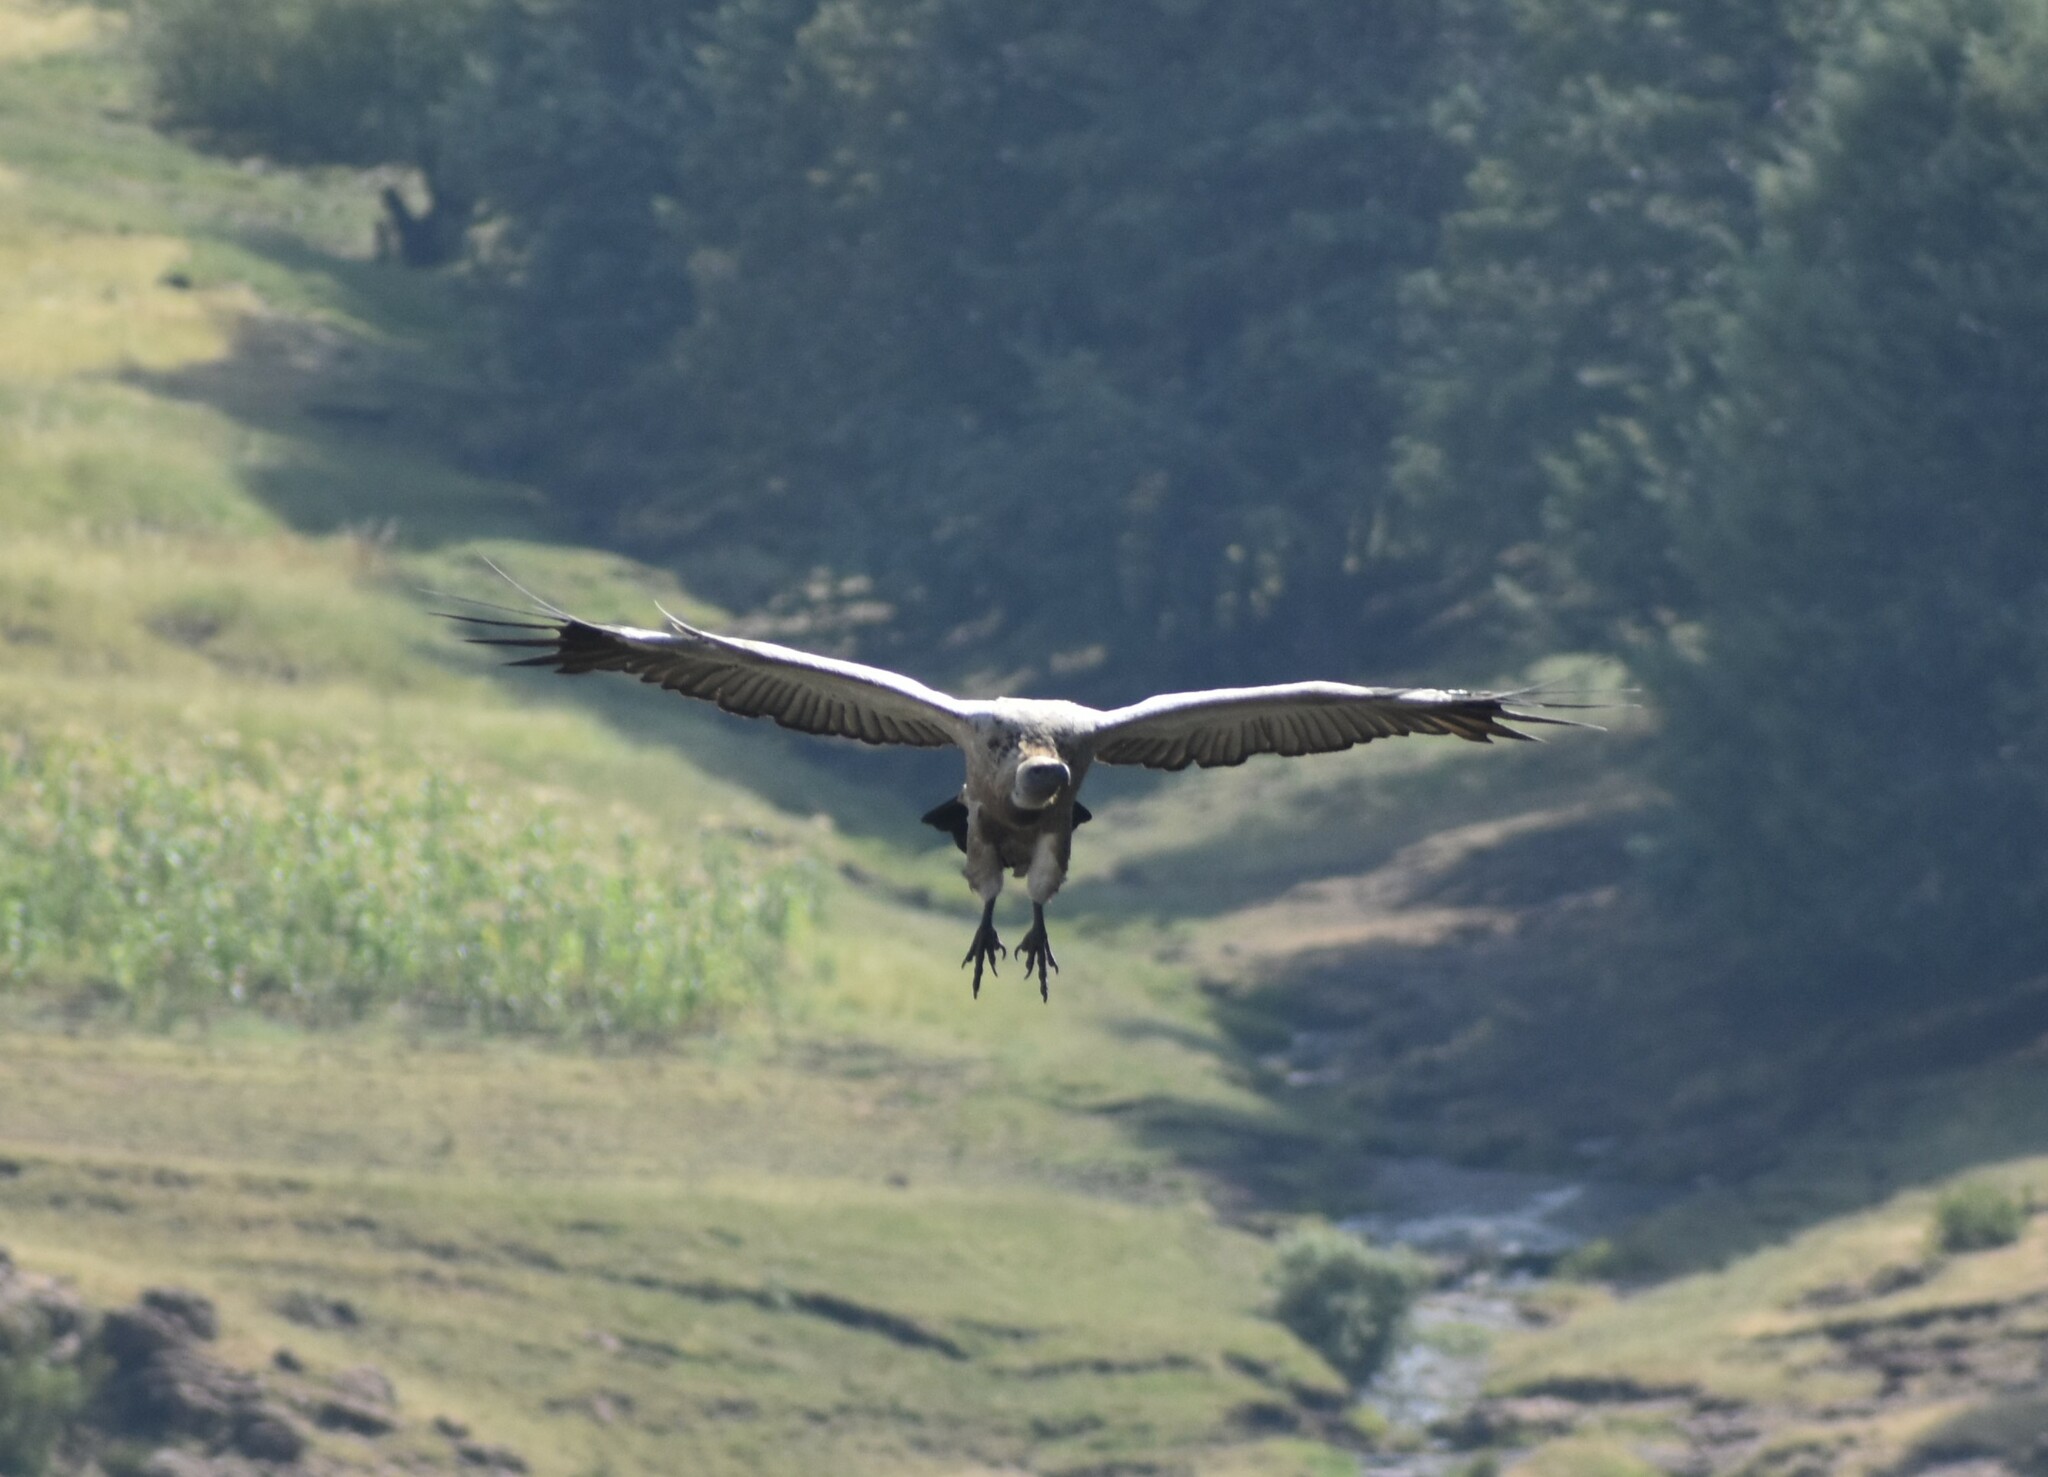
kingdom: Animalia
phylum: Chordata
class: Aves
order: Accipitriformes
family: Accipitridae
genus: Gyps
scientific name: Gyps coprotheres
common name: Cape vulture
